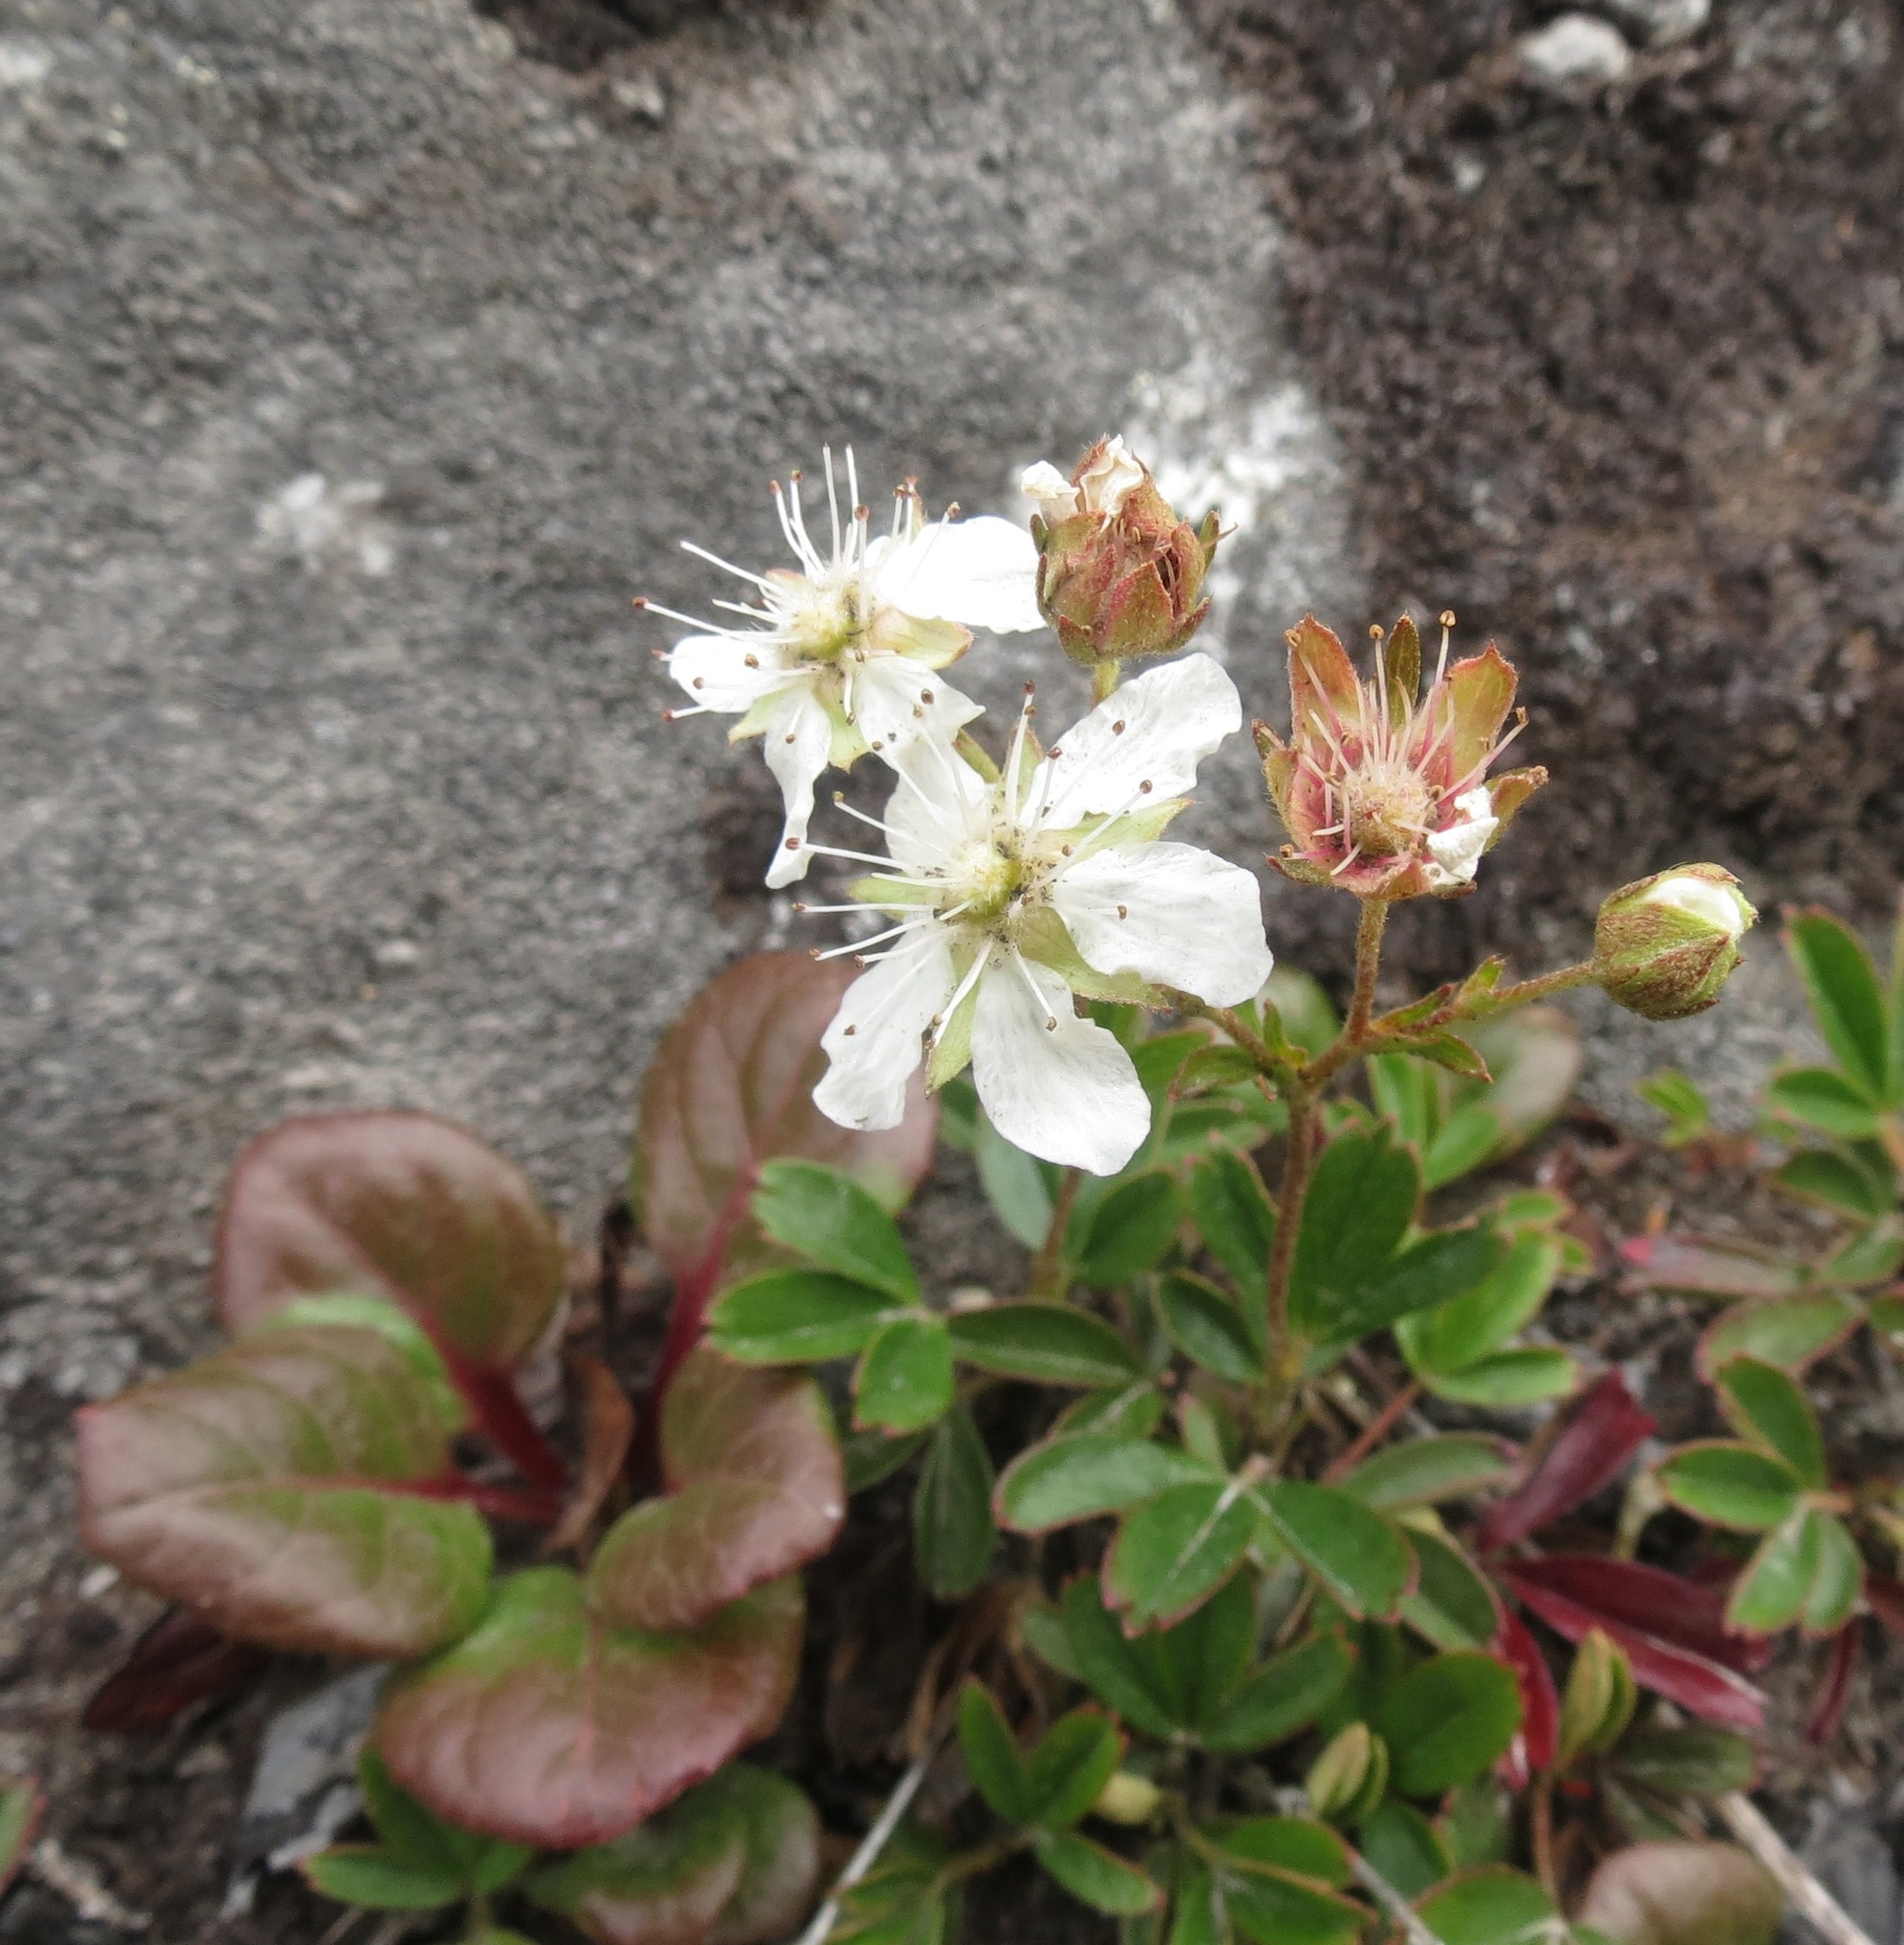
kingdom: Plantae
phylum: Tracheophyta
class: Magnoliopsida
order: Rosales
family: Rosaceae
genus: Sibbaldia
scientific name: Sibbaldia tridentata
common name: Three-toothed cinquefoil
